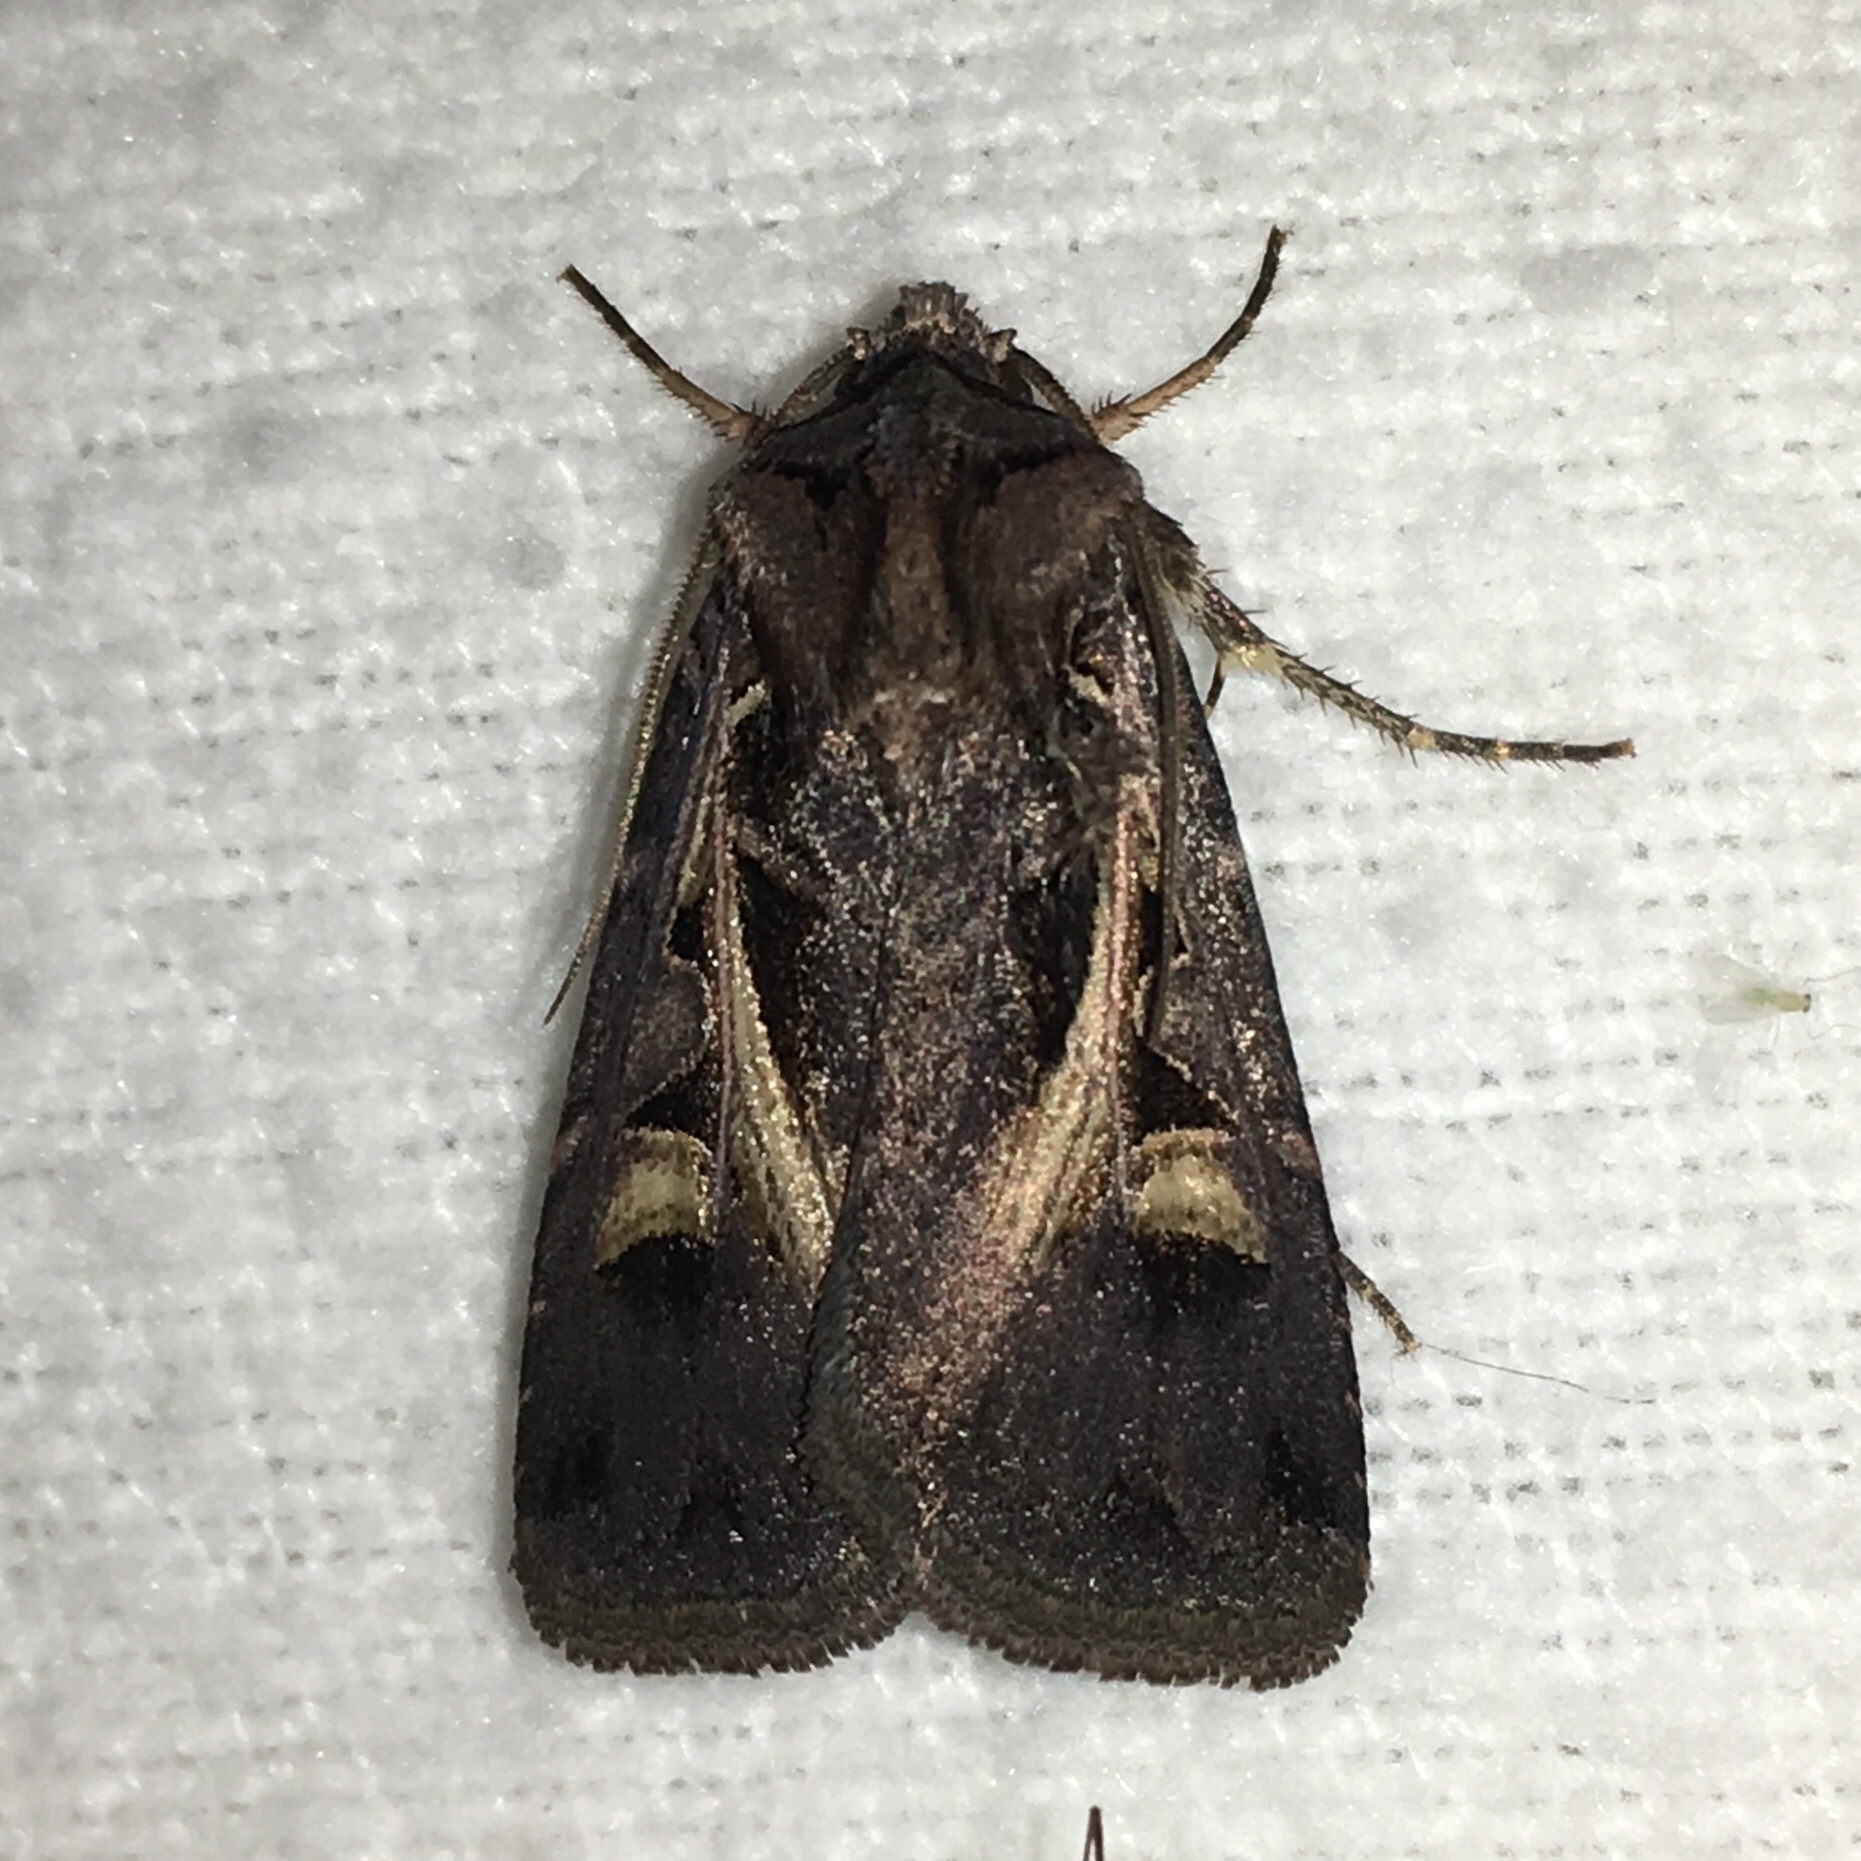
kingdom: Animalia
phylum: Arthropoda
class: Insecta
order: Lepidoptera
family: Noctuidae
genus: Feltia
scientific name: Feltia herilis
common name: Master's dart
